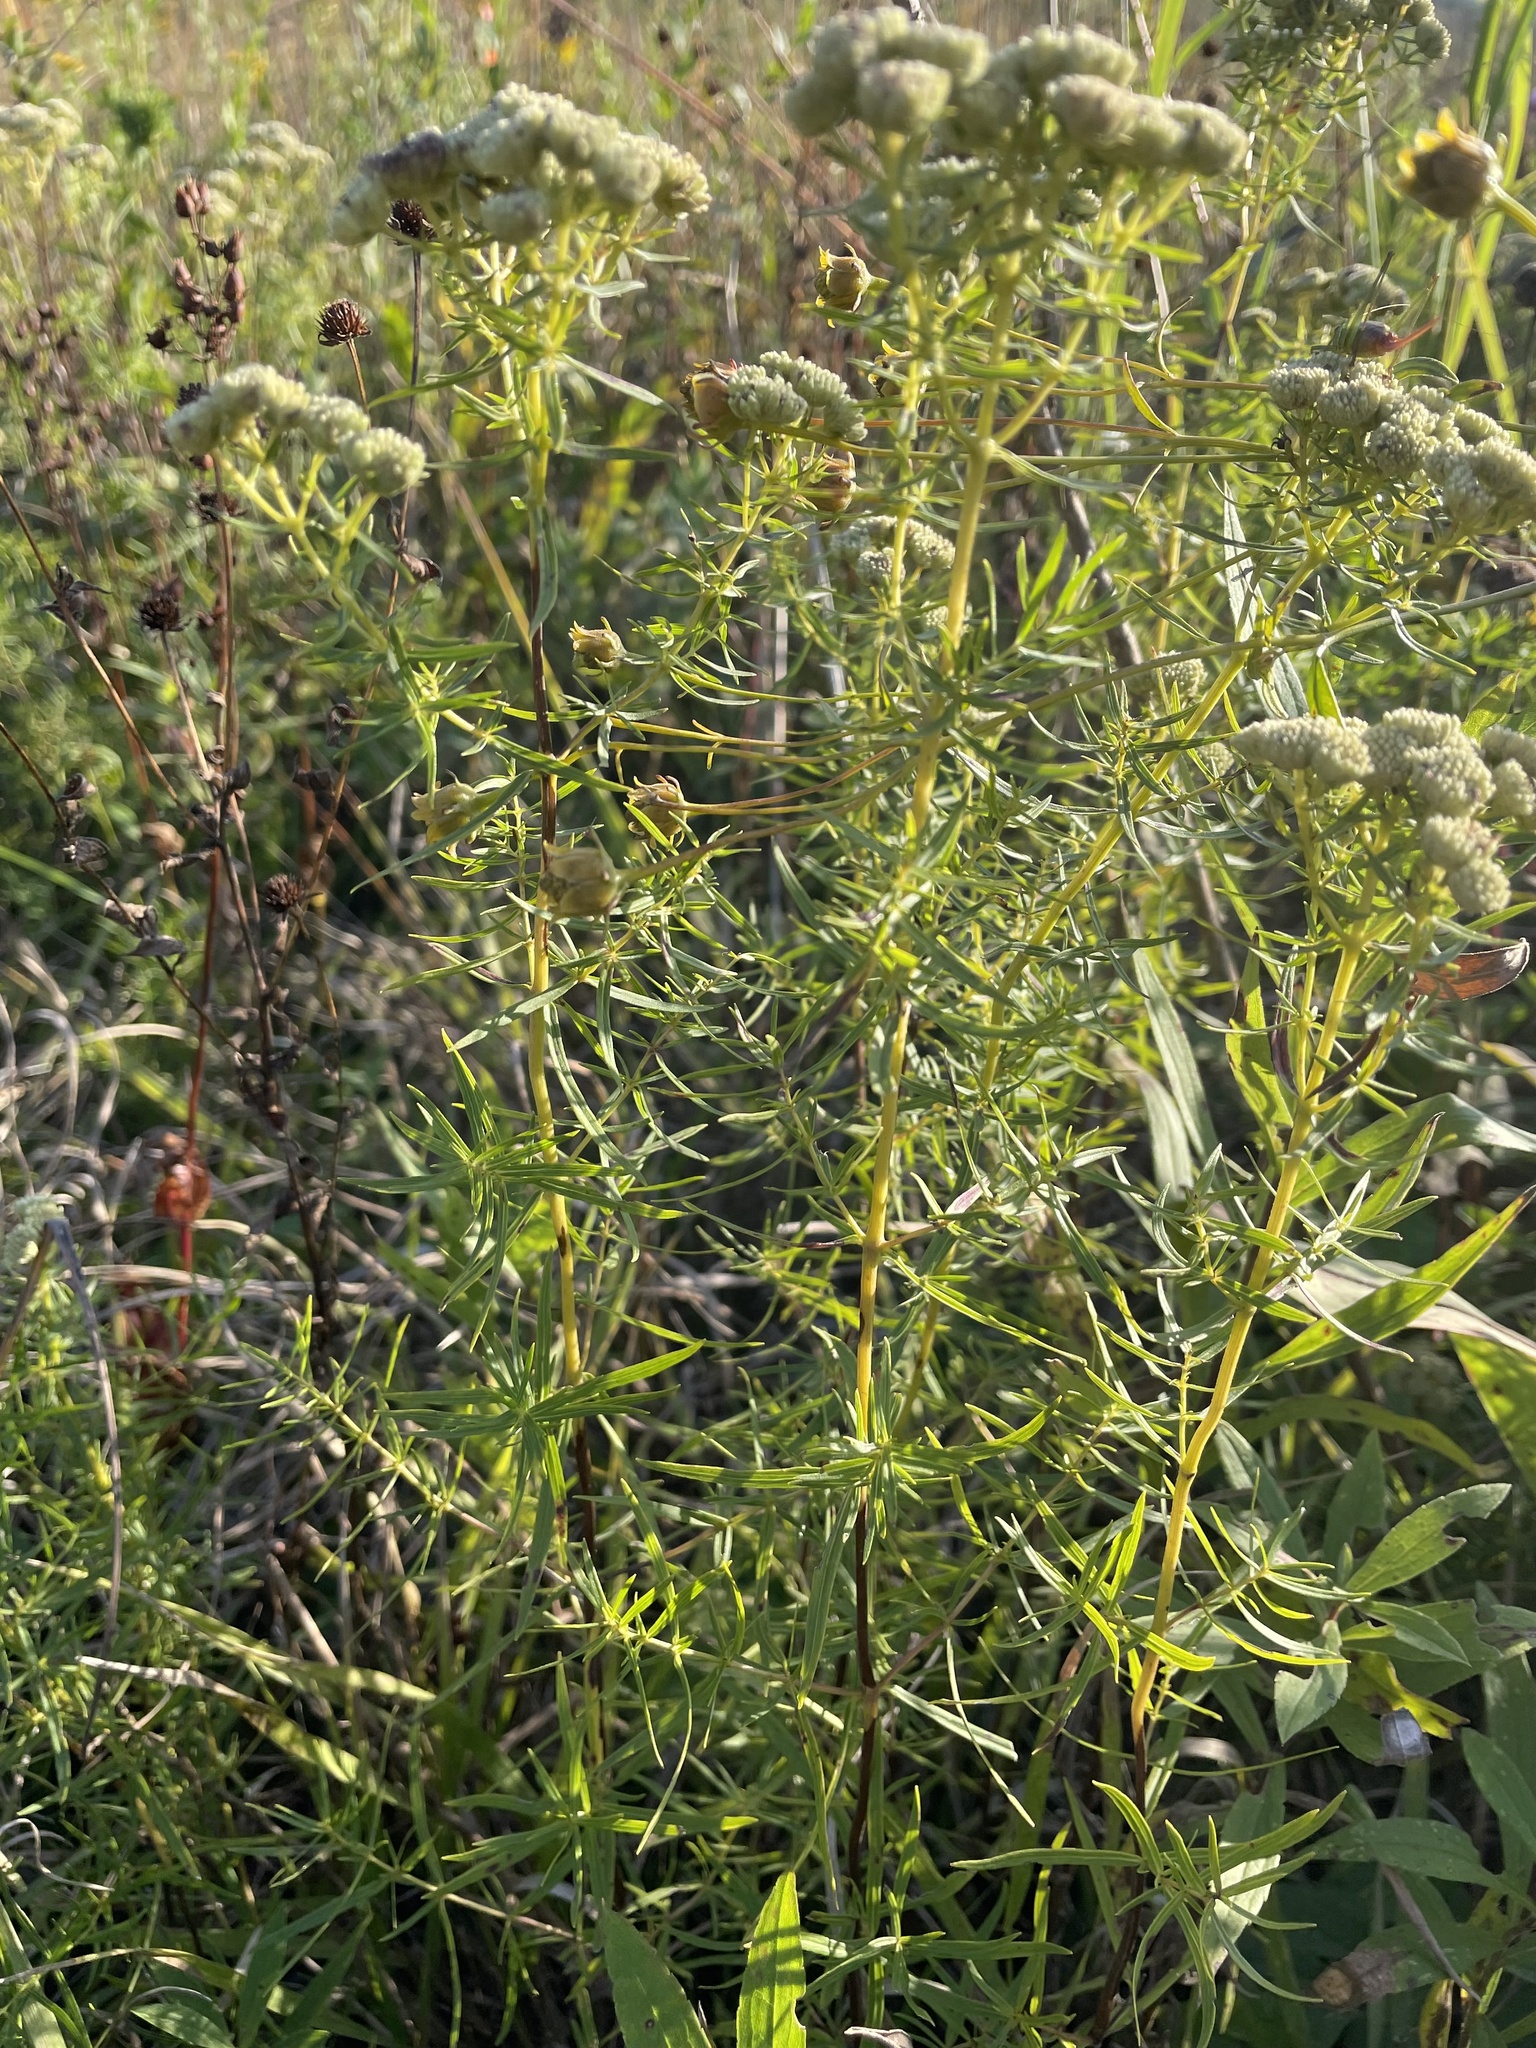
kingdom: Plantae
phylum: Tracheophyta
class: Magnoliopsida
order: Lamiales
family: Lamiaceae
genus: Pycnanthemum
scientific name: Pycnanthemum virginianum
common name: Virginia mountain-mint
